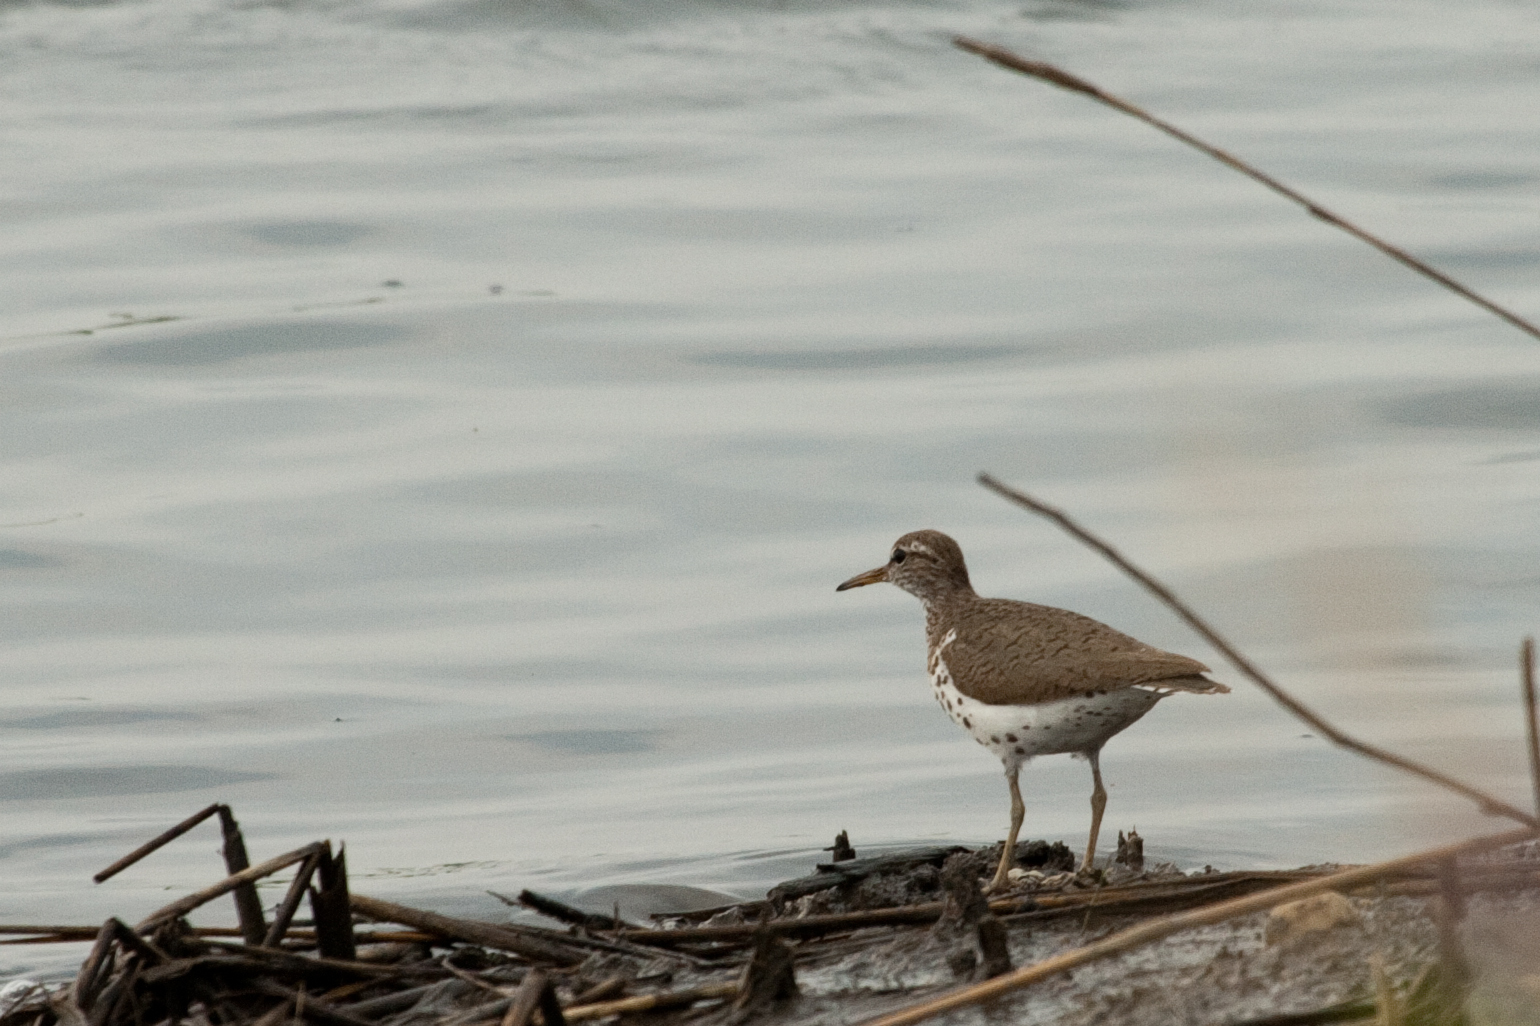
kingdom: Animalia
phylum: Chordata
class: Aves
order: Charadriiformes
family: Scolopacidae
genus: Actitis
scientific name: Actitis macularius
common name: Spotted sandpiper
